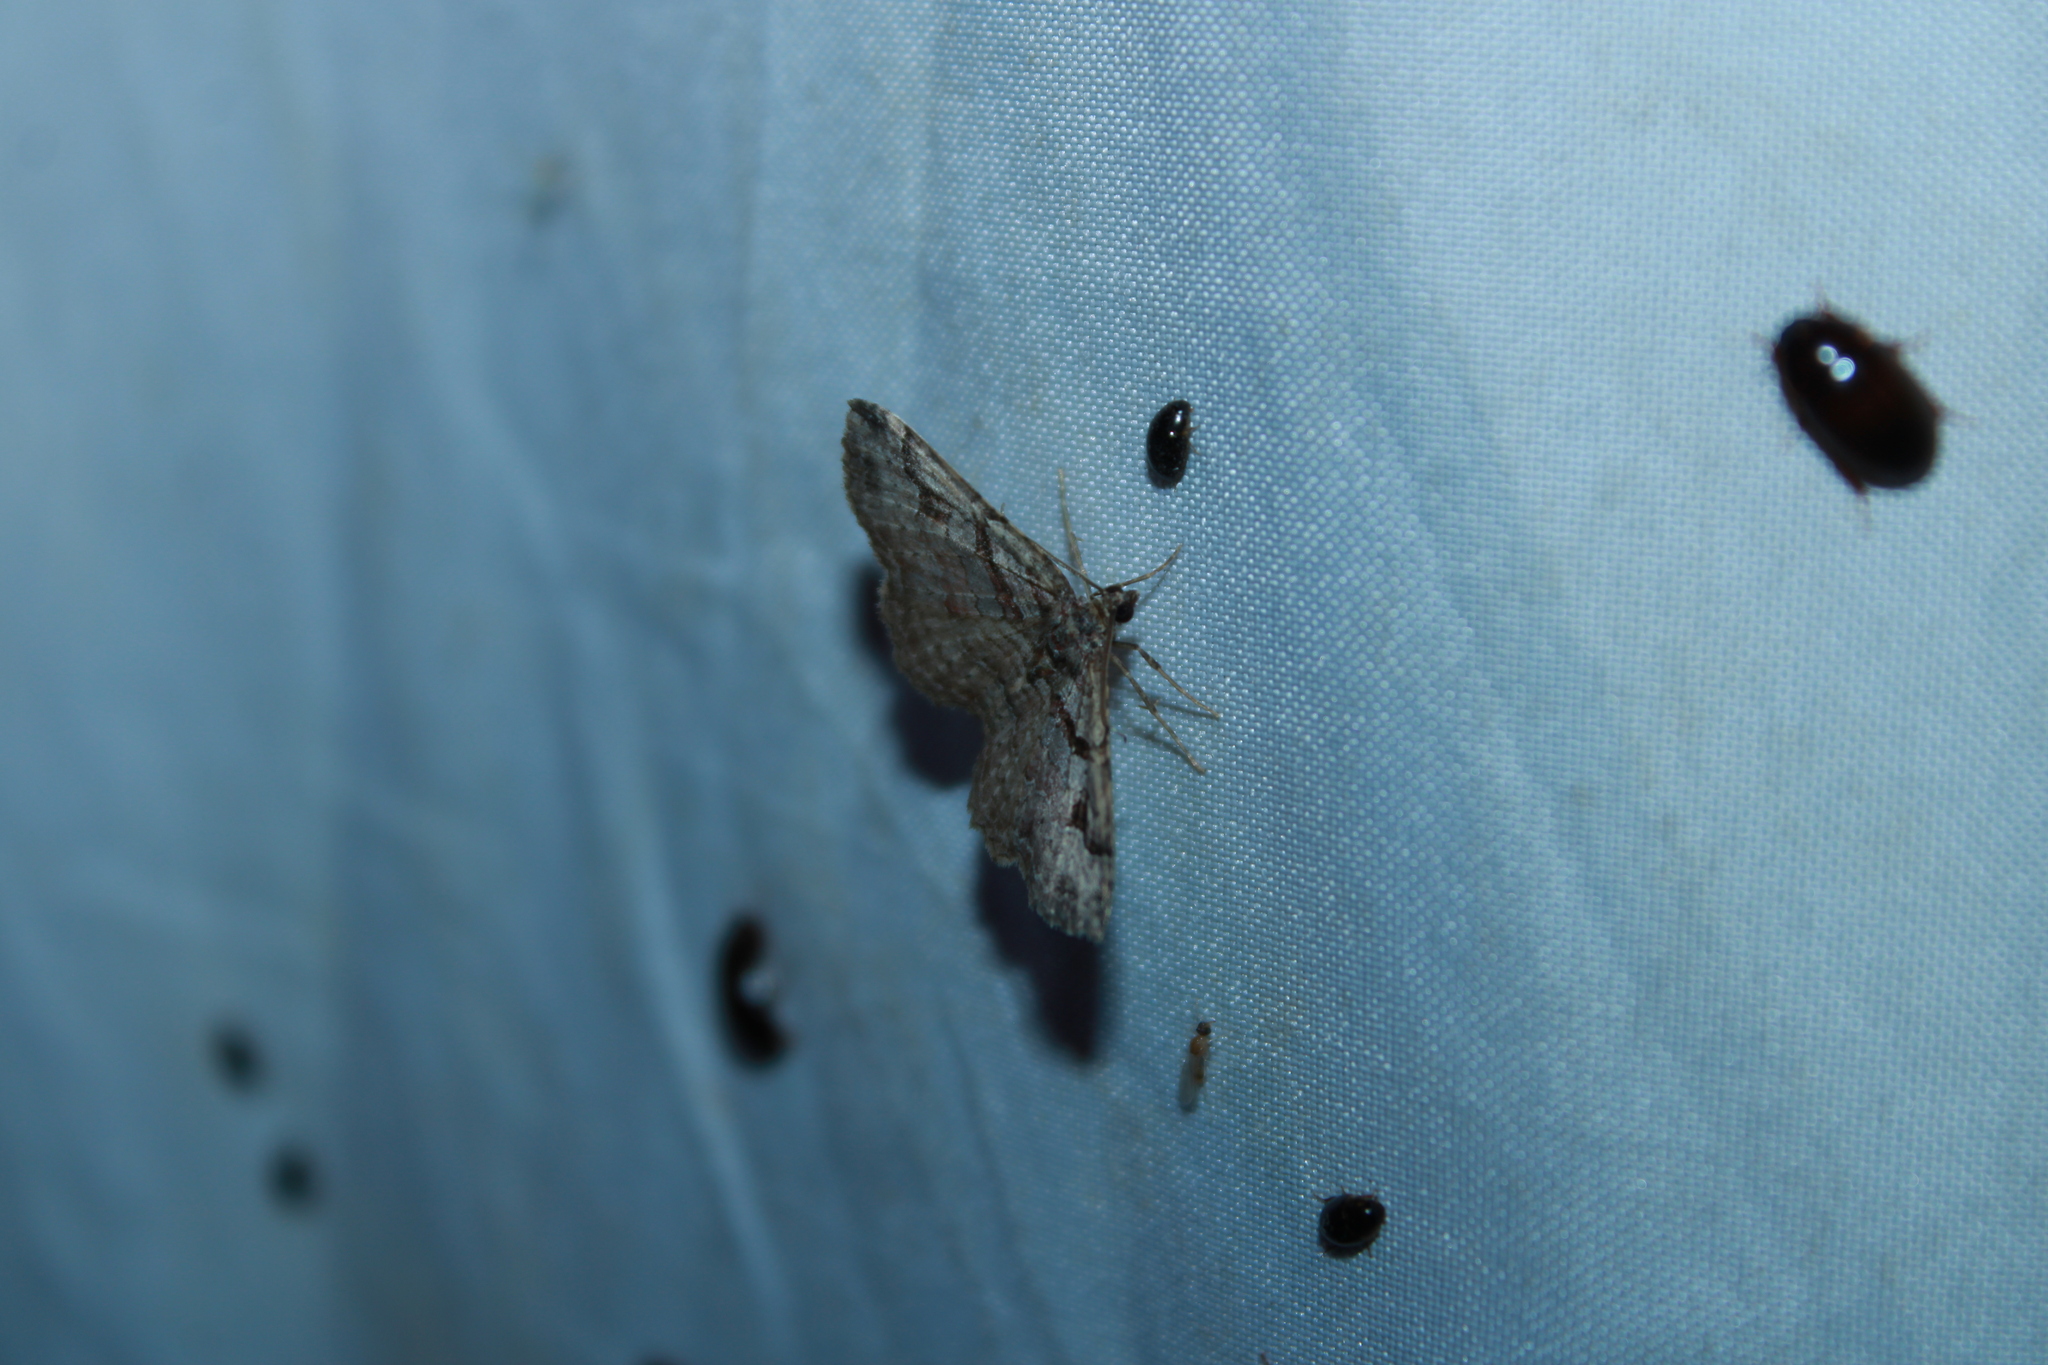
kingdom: Animalia
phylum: Arthropoda
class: Insecta
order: Lepidoptera
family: Geometridae
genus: Costaconvexa
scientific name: Costaconvexa centrostrigaria
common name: Bent-line carpet
